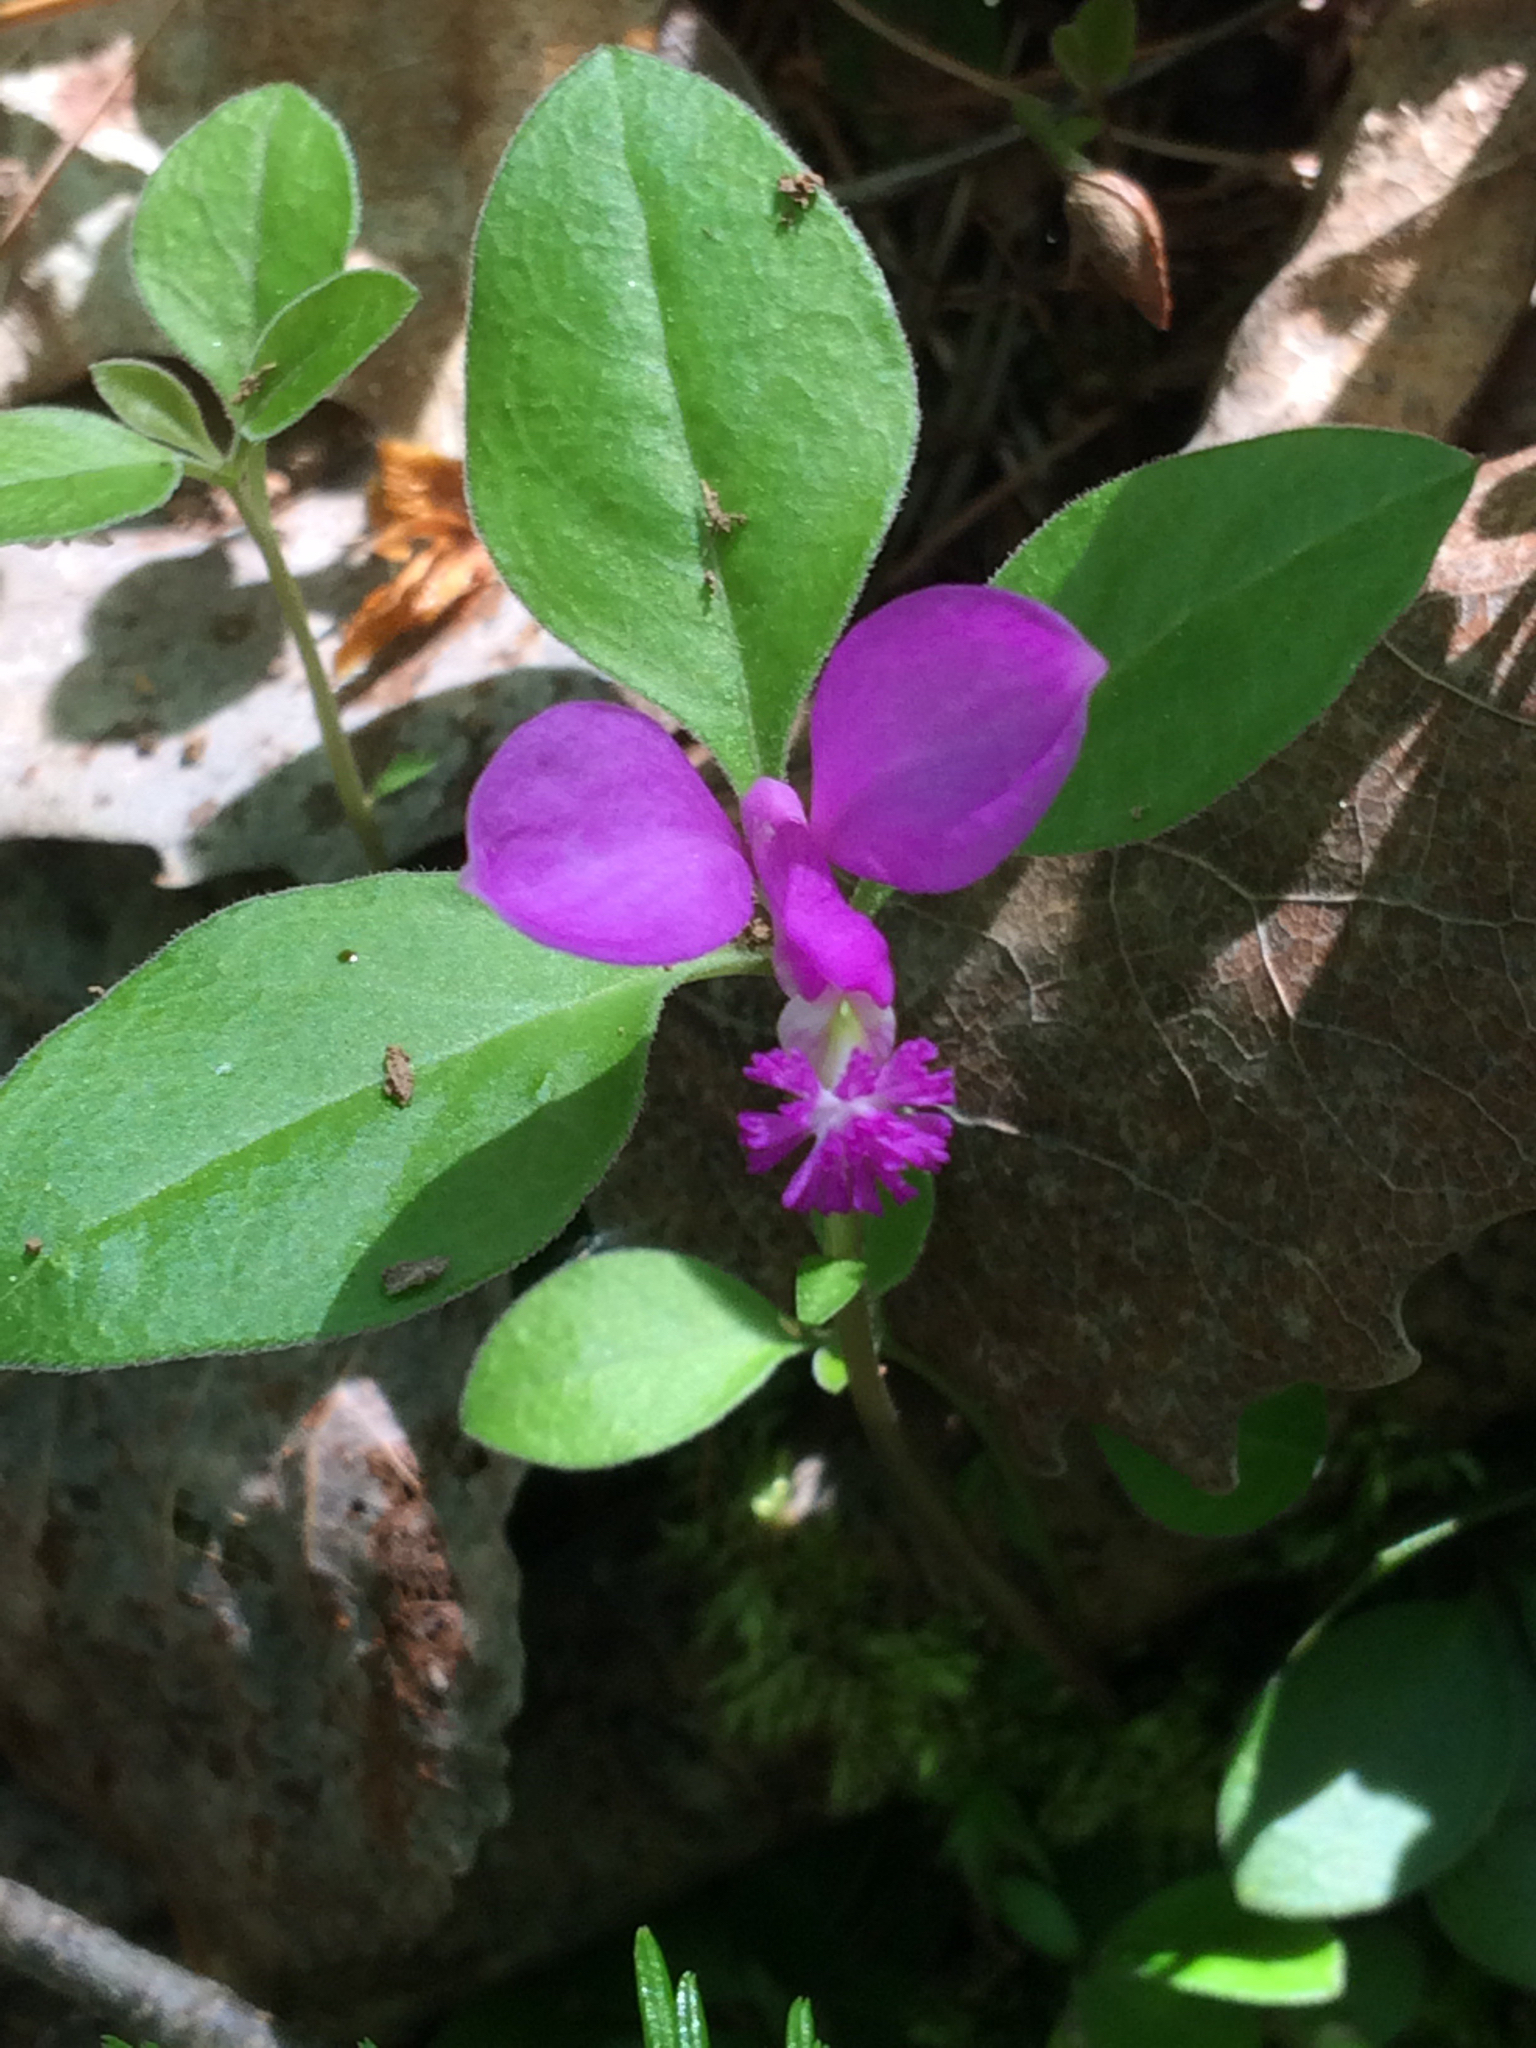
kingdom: Plantae
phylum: Tracheophyta
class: Magnoliopsida
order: Fabales
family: Polygalaceae
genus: Polygaloides
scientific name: Polygaloides paucifolia
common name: Bird-on-the-wing
